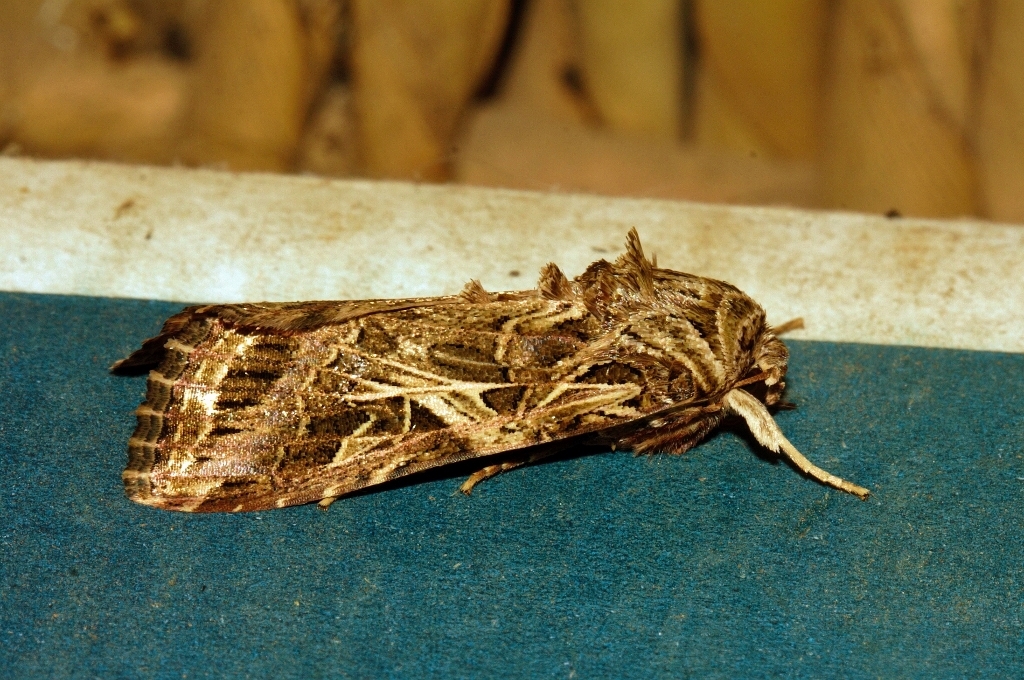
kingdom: Animalia
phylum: Arthropoda
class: Insecta
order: Lepidoptera
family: Noctuidae
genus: Spodoptera
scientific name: Spodoptera littoralis
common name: Egyptian cotton leafworm
